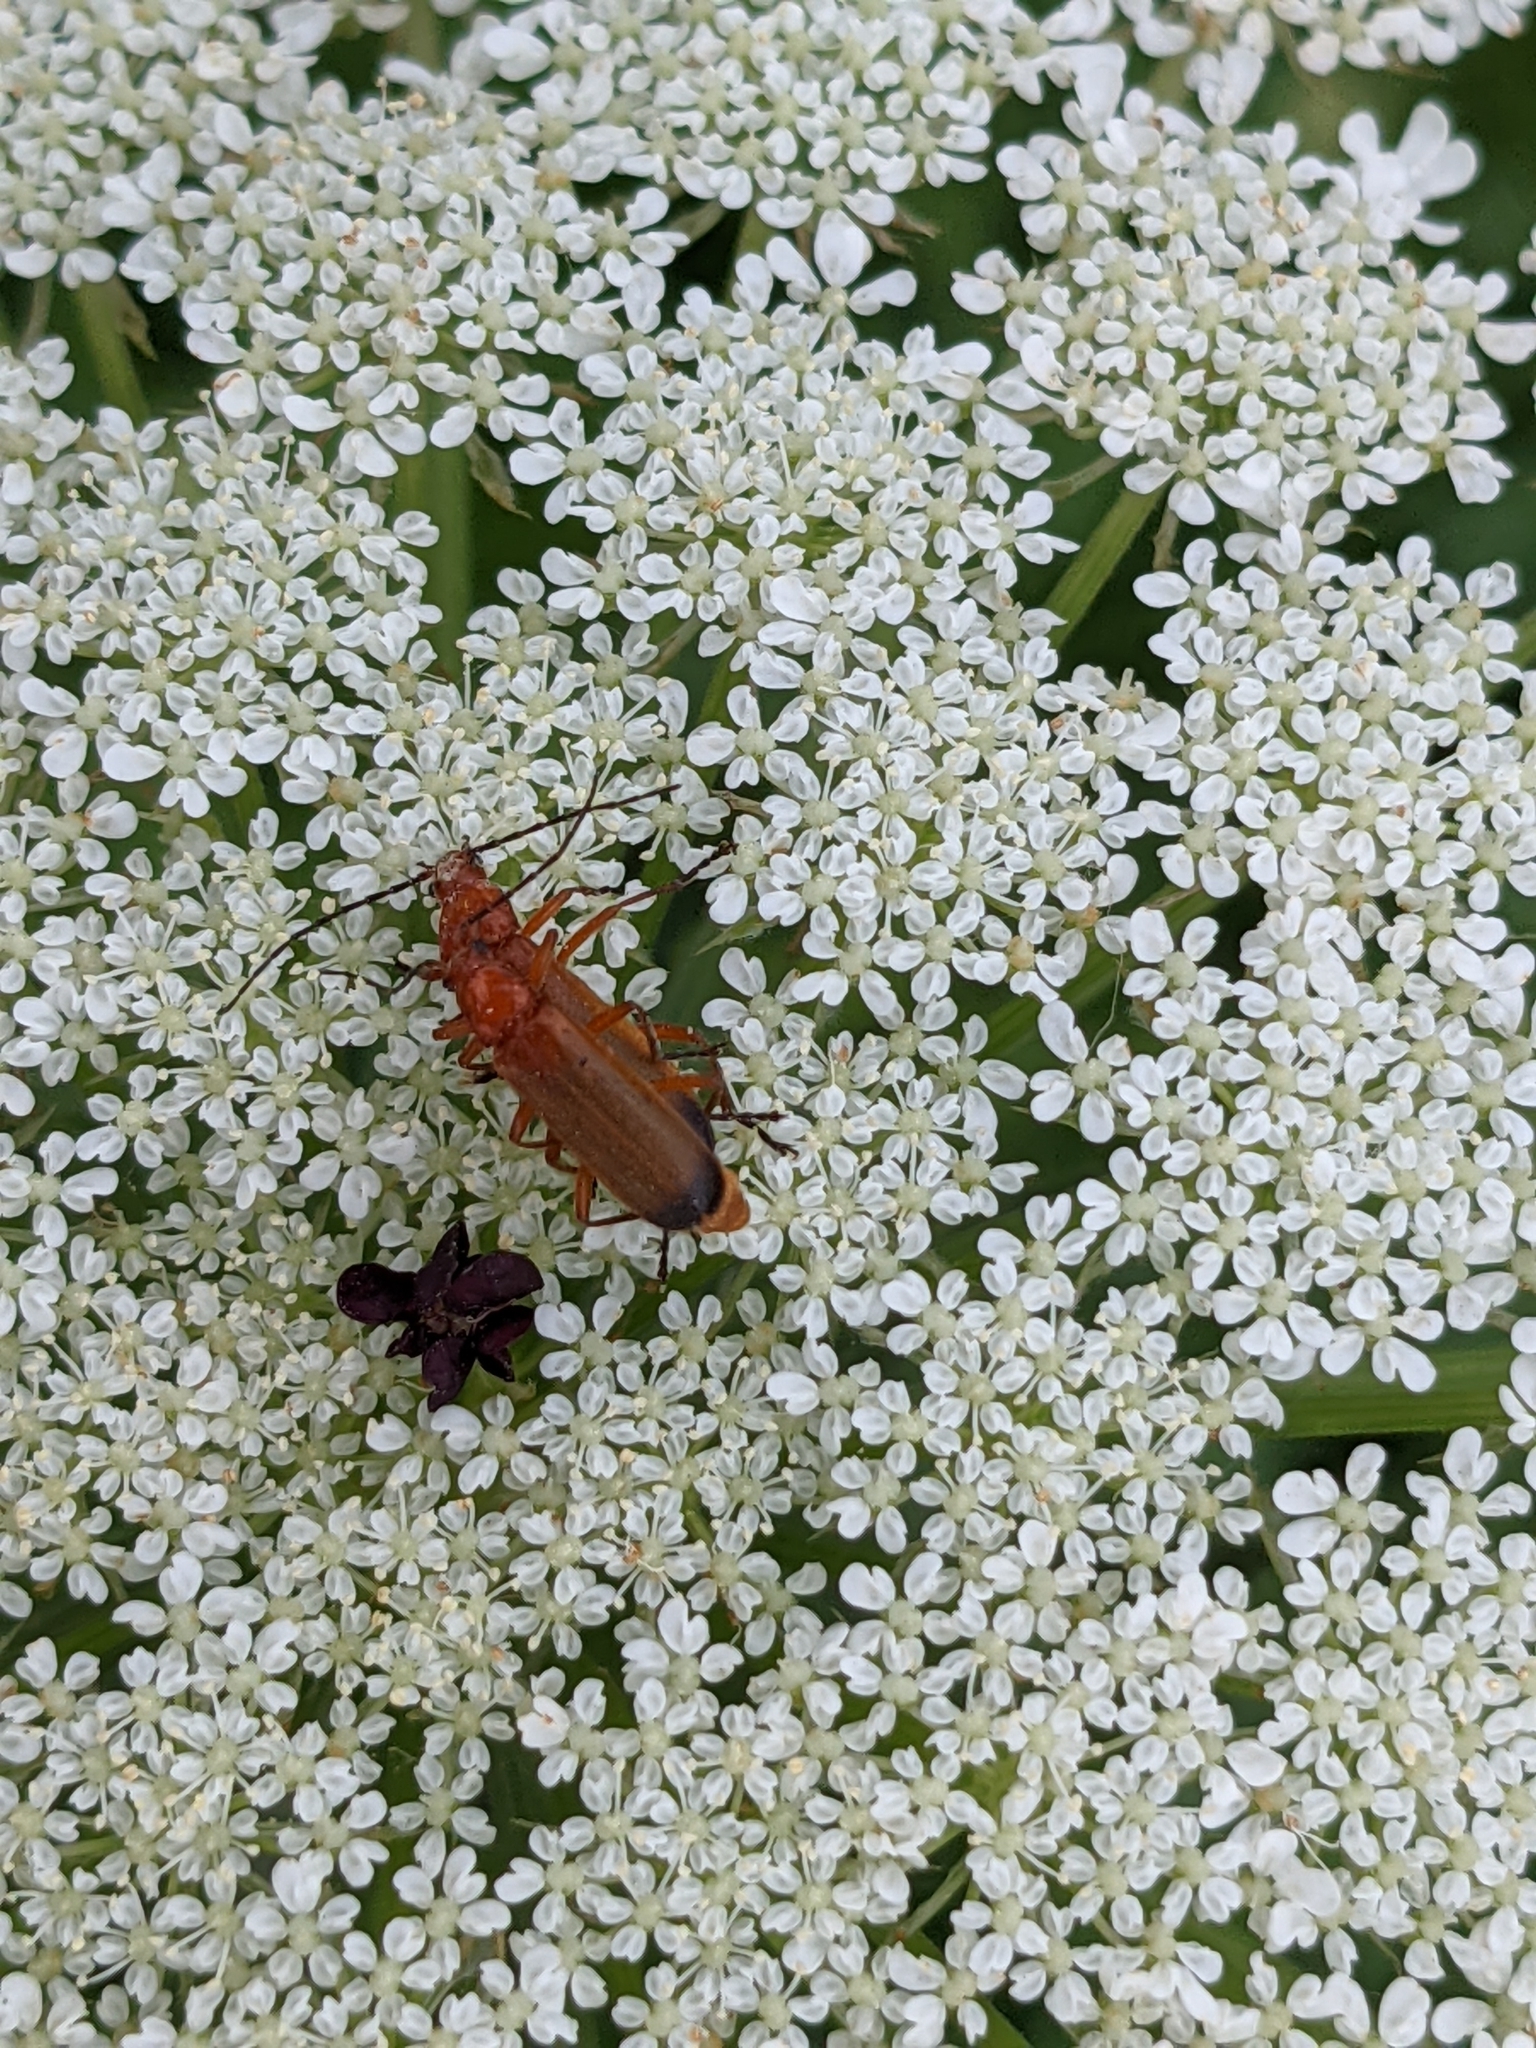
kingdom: Animalia
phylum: Arthropoda
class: Insecta
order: Coleoptera
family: Cantharidae
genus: Rhagonycha
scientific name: Rhagonycha fulva
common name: Common red soldier beetle
